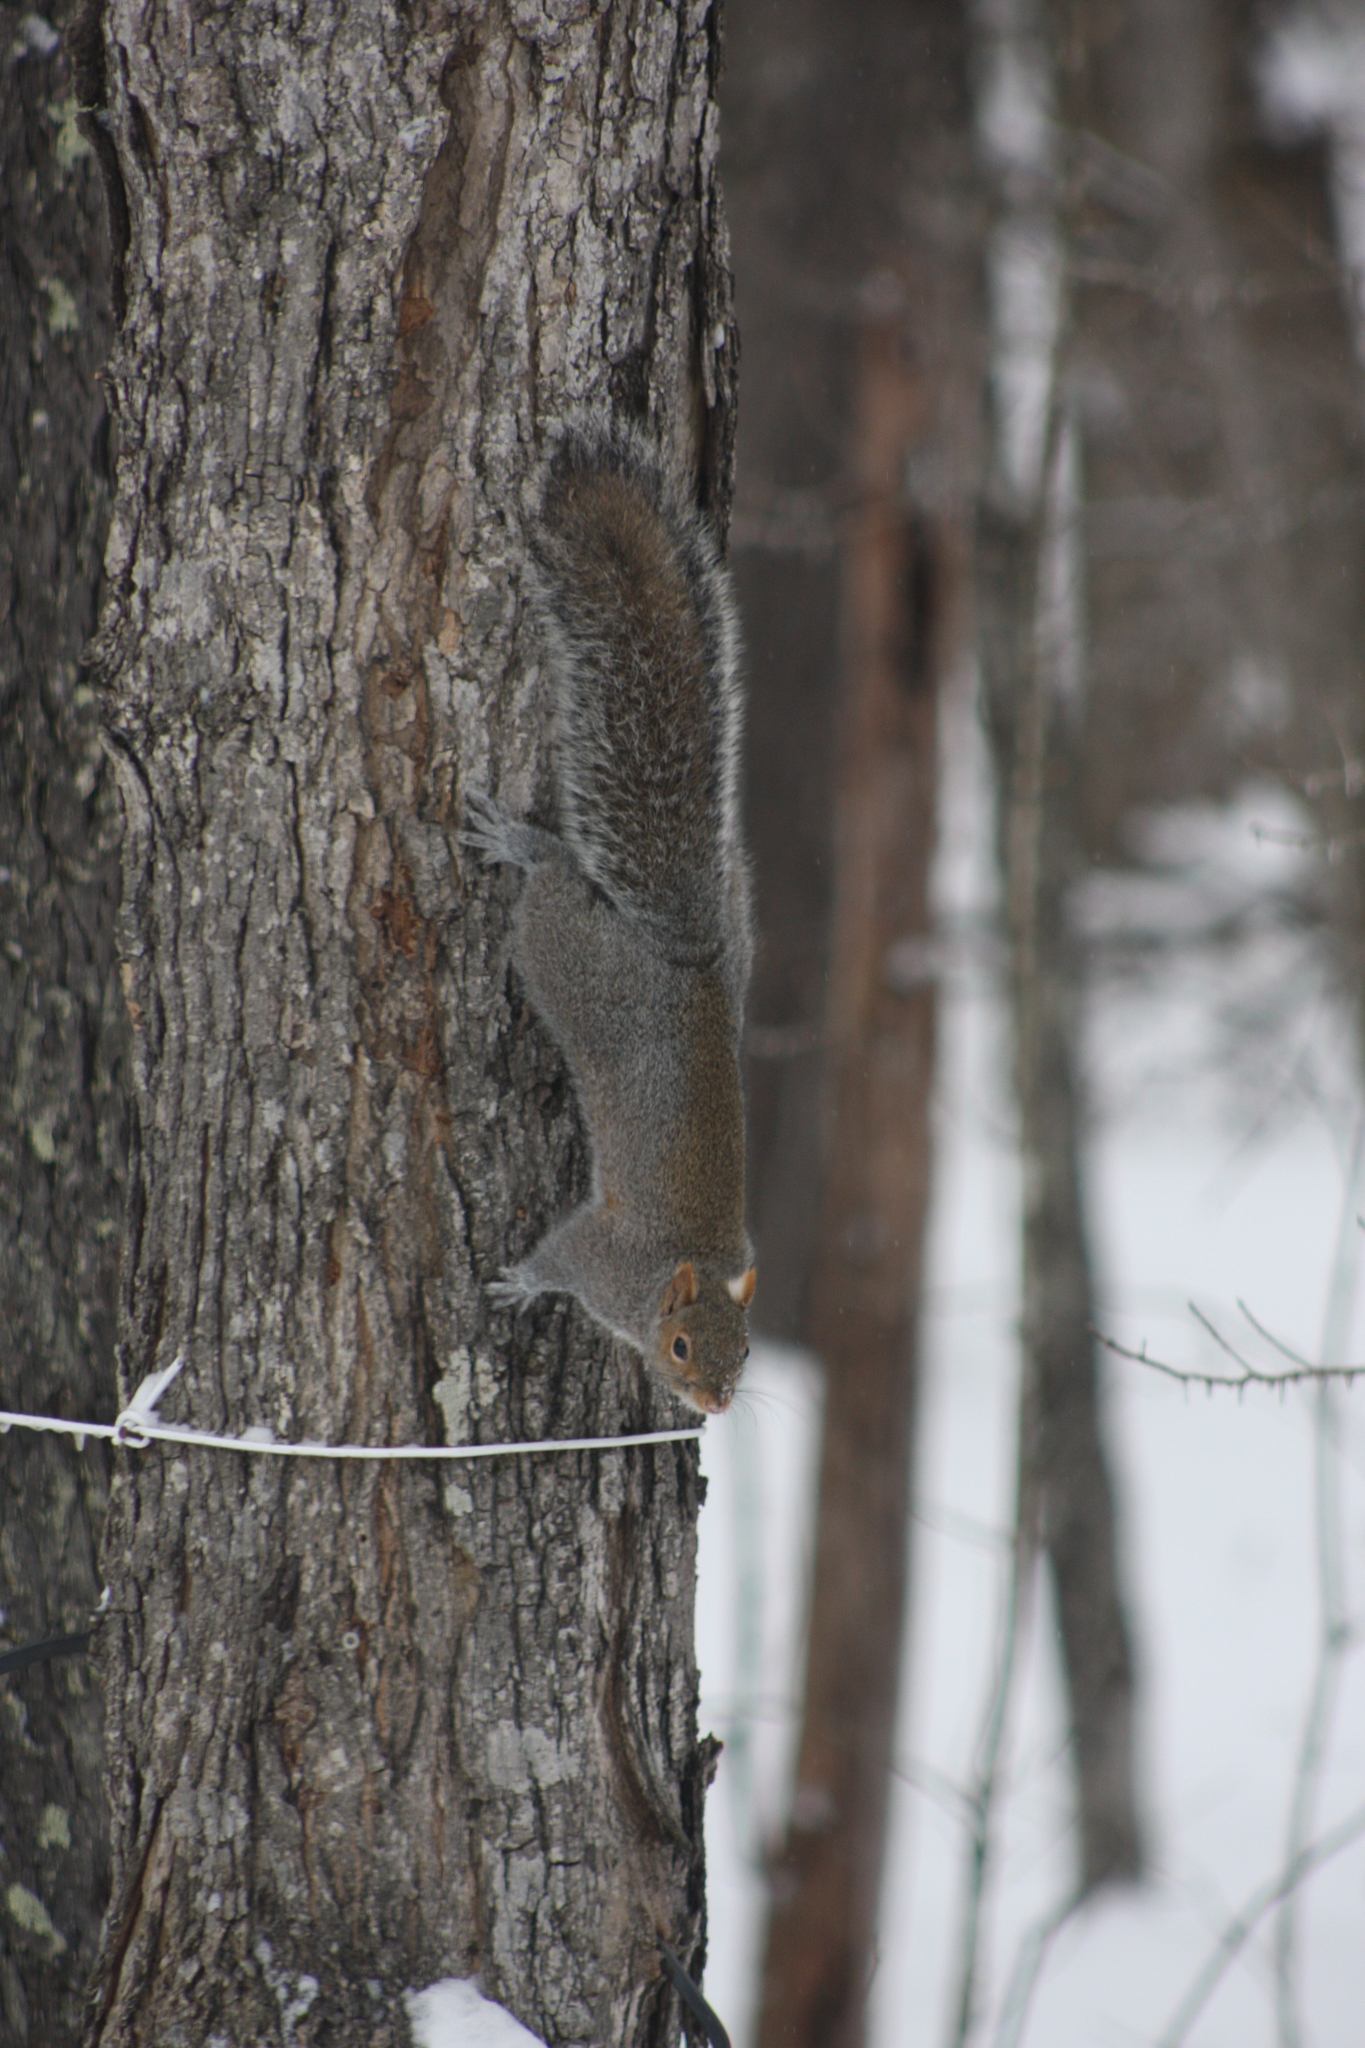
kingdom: Animalia
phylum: Chordata
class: Mammalia
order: Rodentia
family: Sciuridae
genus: Sciurus
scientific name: Sciurus carolinensis
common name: Eastern gray squirrel
